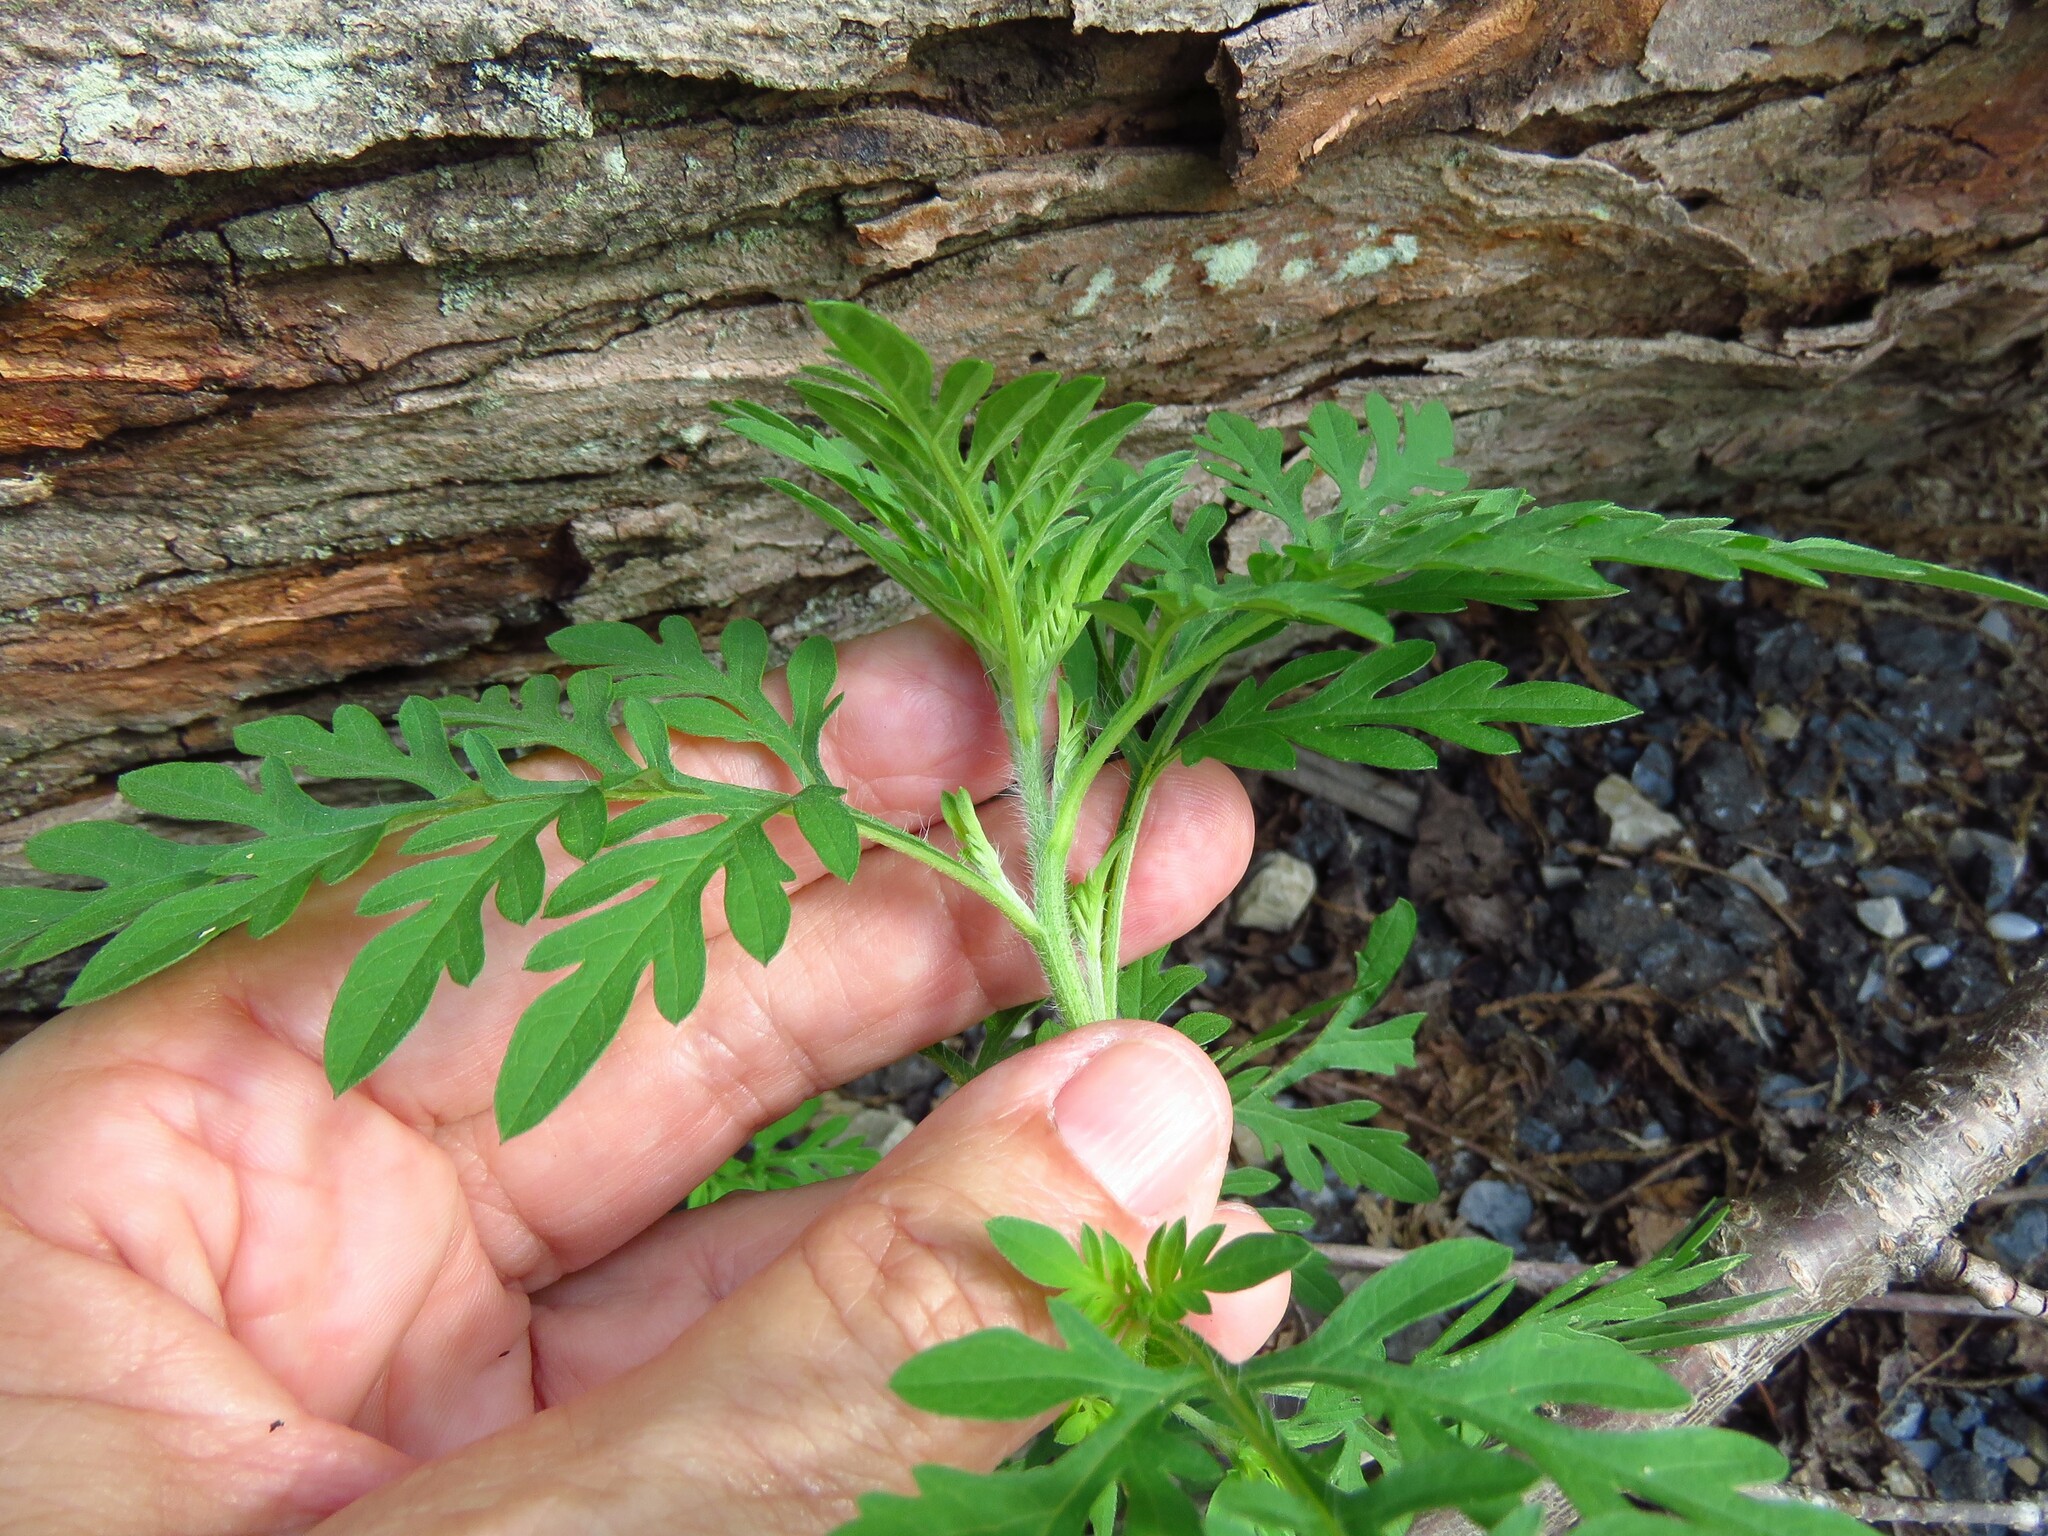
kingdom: Plantae
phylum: Tracheophyta
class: Magnoliopsida
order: Asterales
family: Asteraceae
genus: Ambrosia
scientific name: Ambrosia artemisiifolia
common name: Annual ragweed
